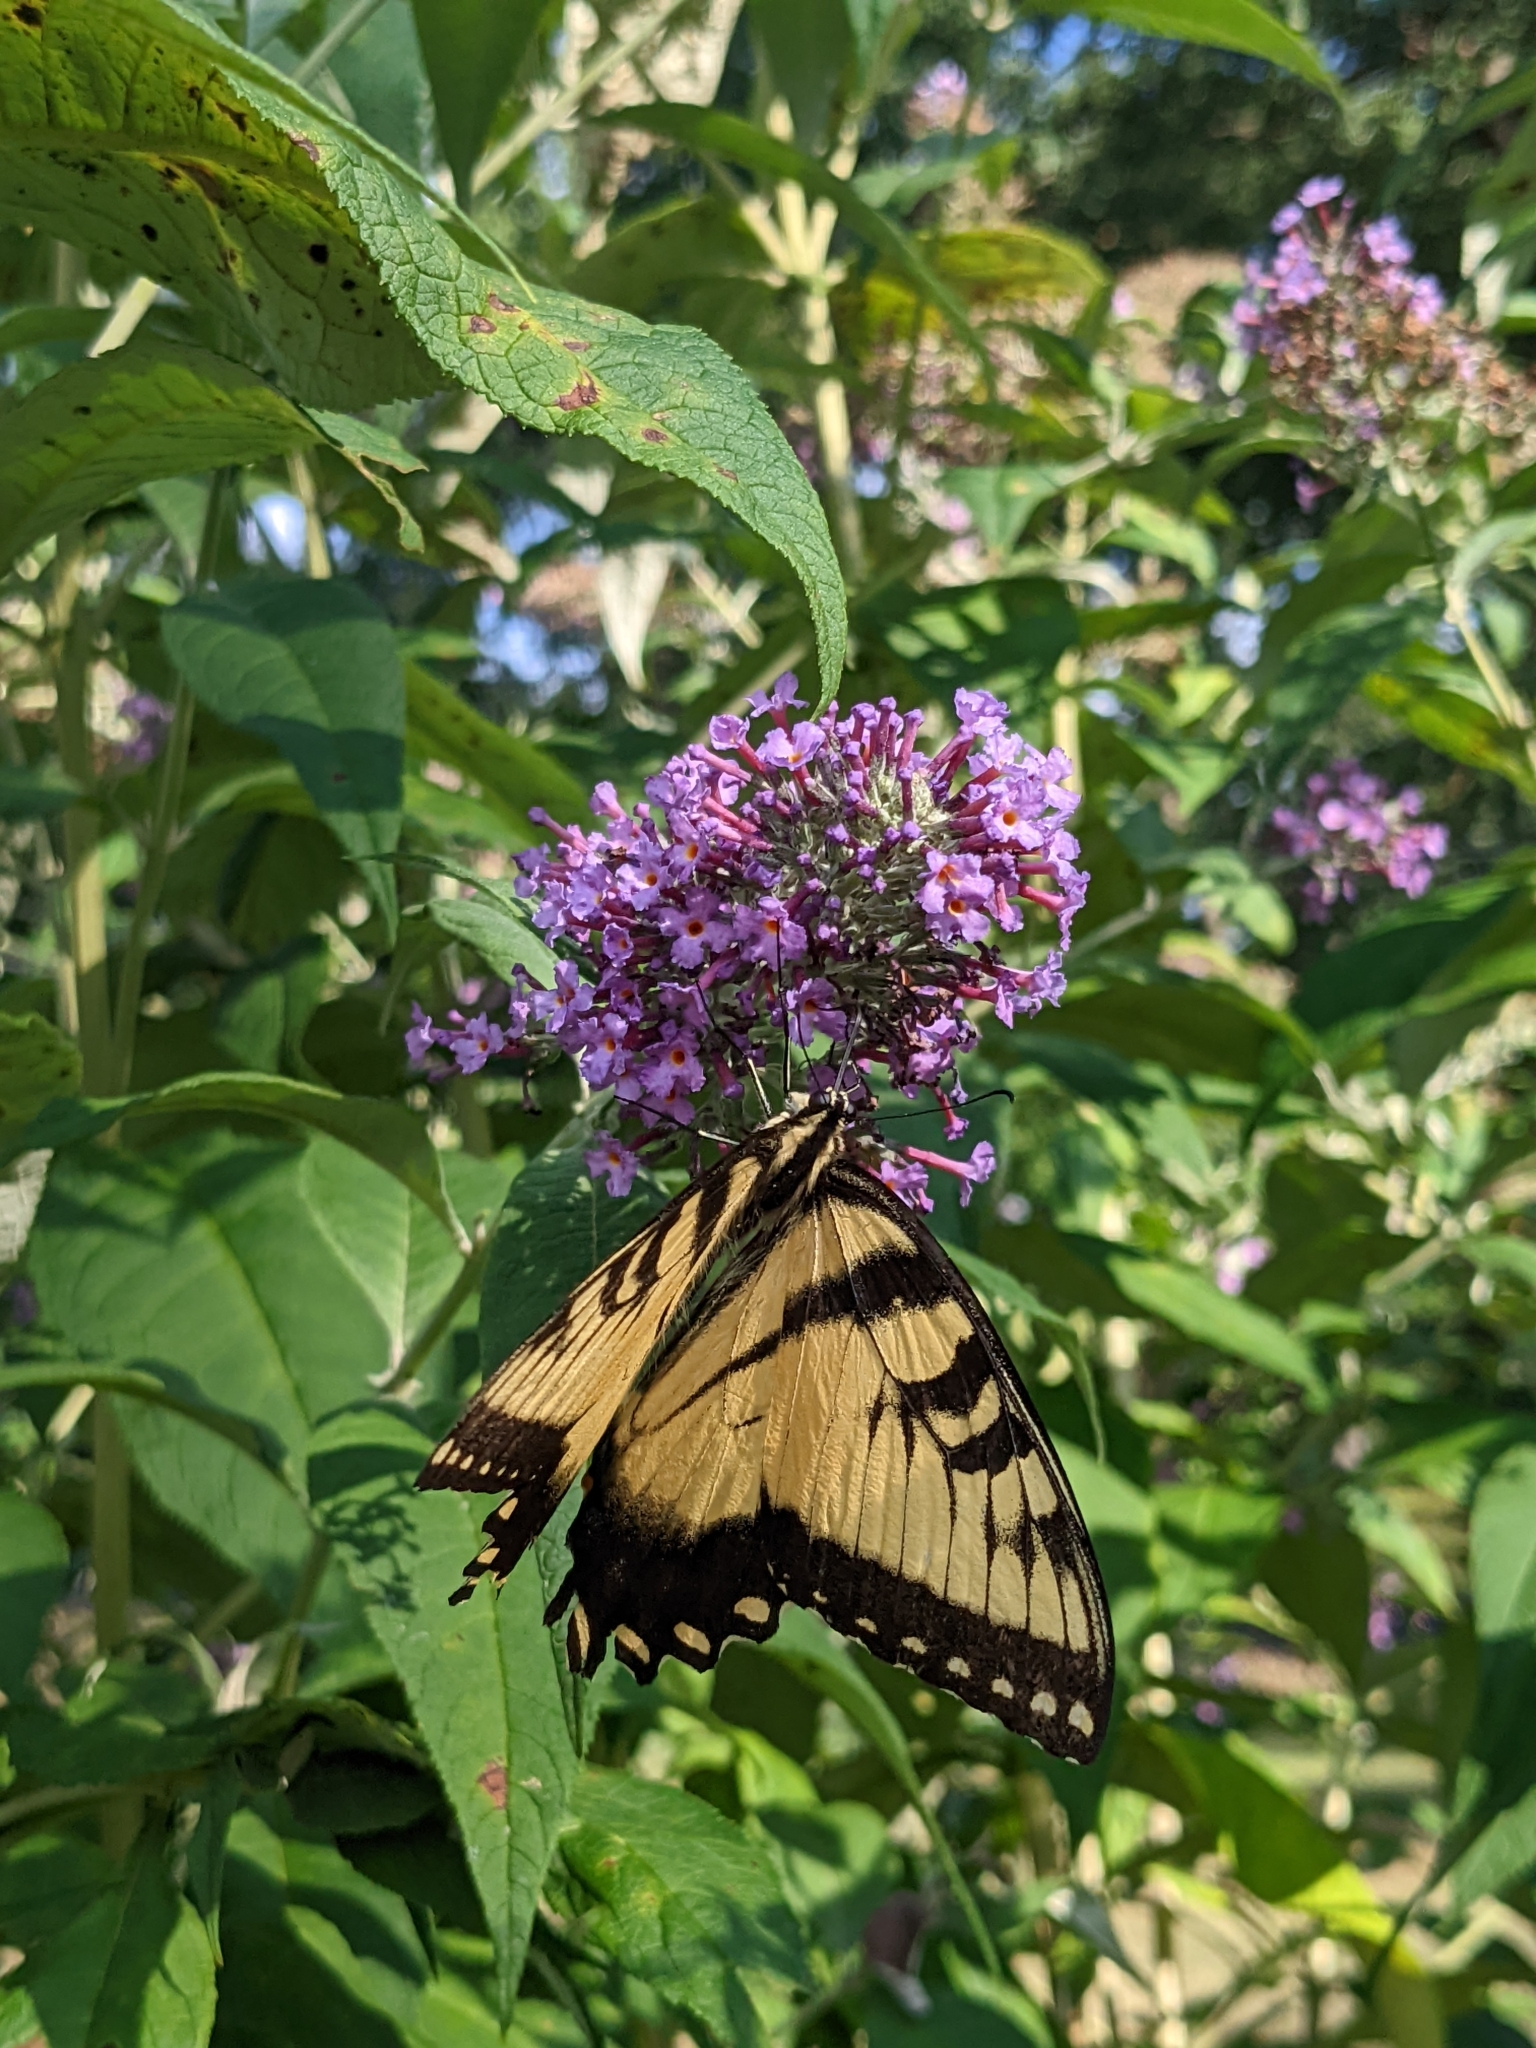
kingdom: Animalia
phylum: Arthropoda
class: Insecta
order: Lepidoptera
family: Papilionidae
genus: Papilio
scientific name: Papilio glaucus
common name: Tiger swallowtail
